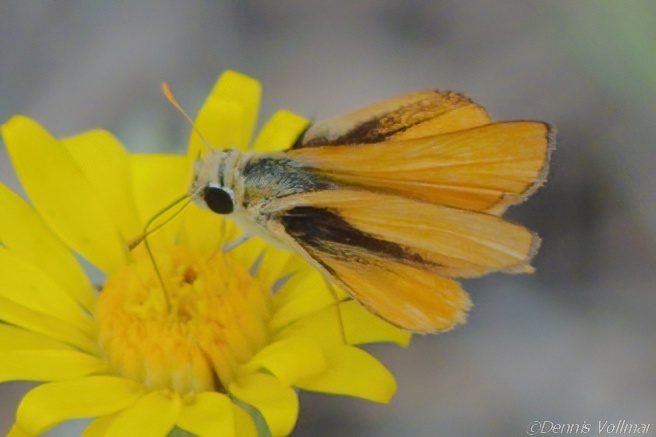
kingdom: Animalia
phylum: Arthropoda
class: Insecta
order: Lepidoptera
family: Hesperiidae
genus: Copaeodes
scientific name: Copaeodes aurantiaca
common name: Orange skipperling
